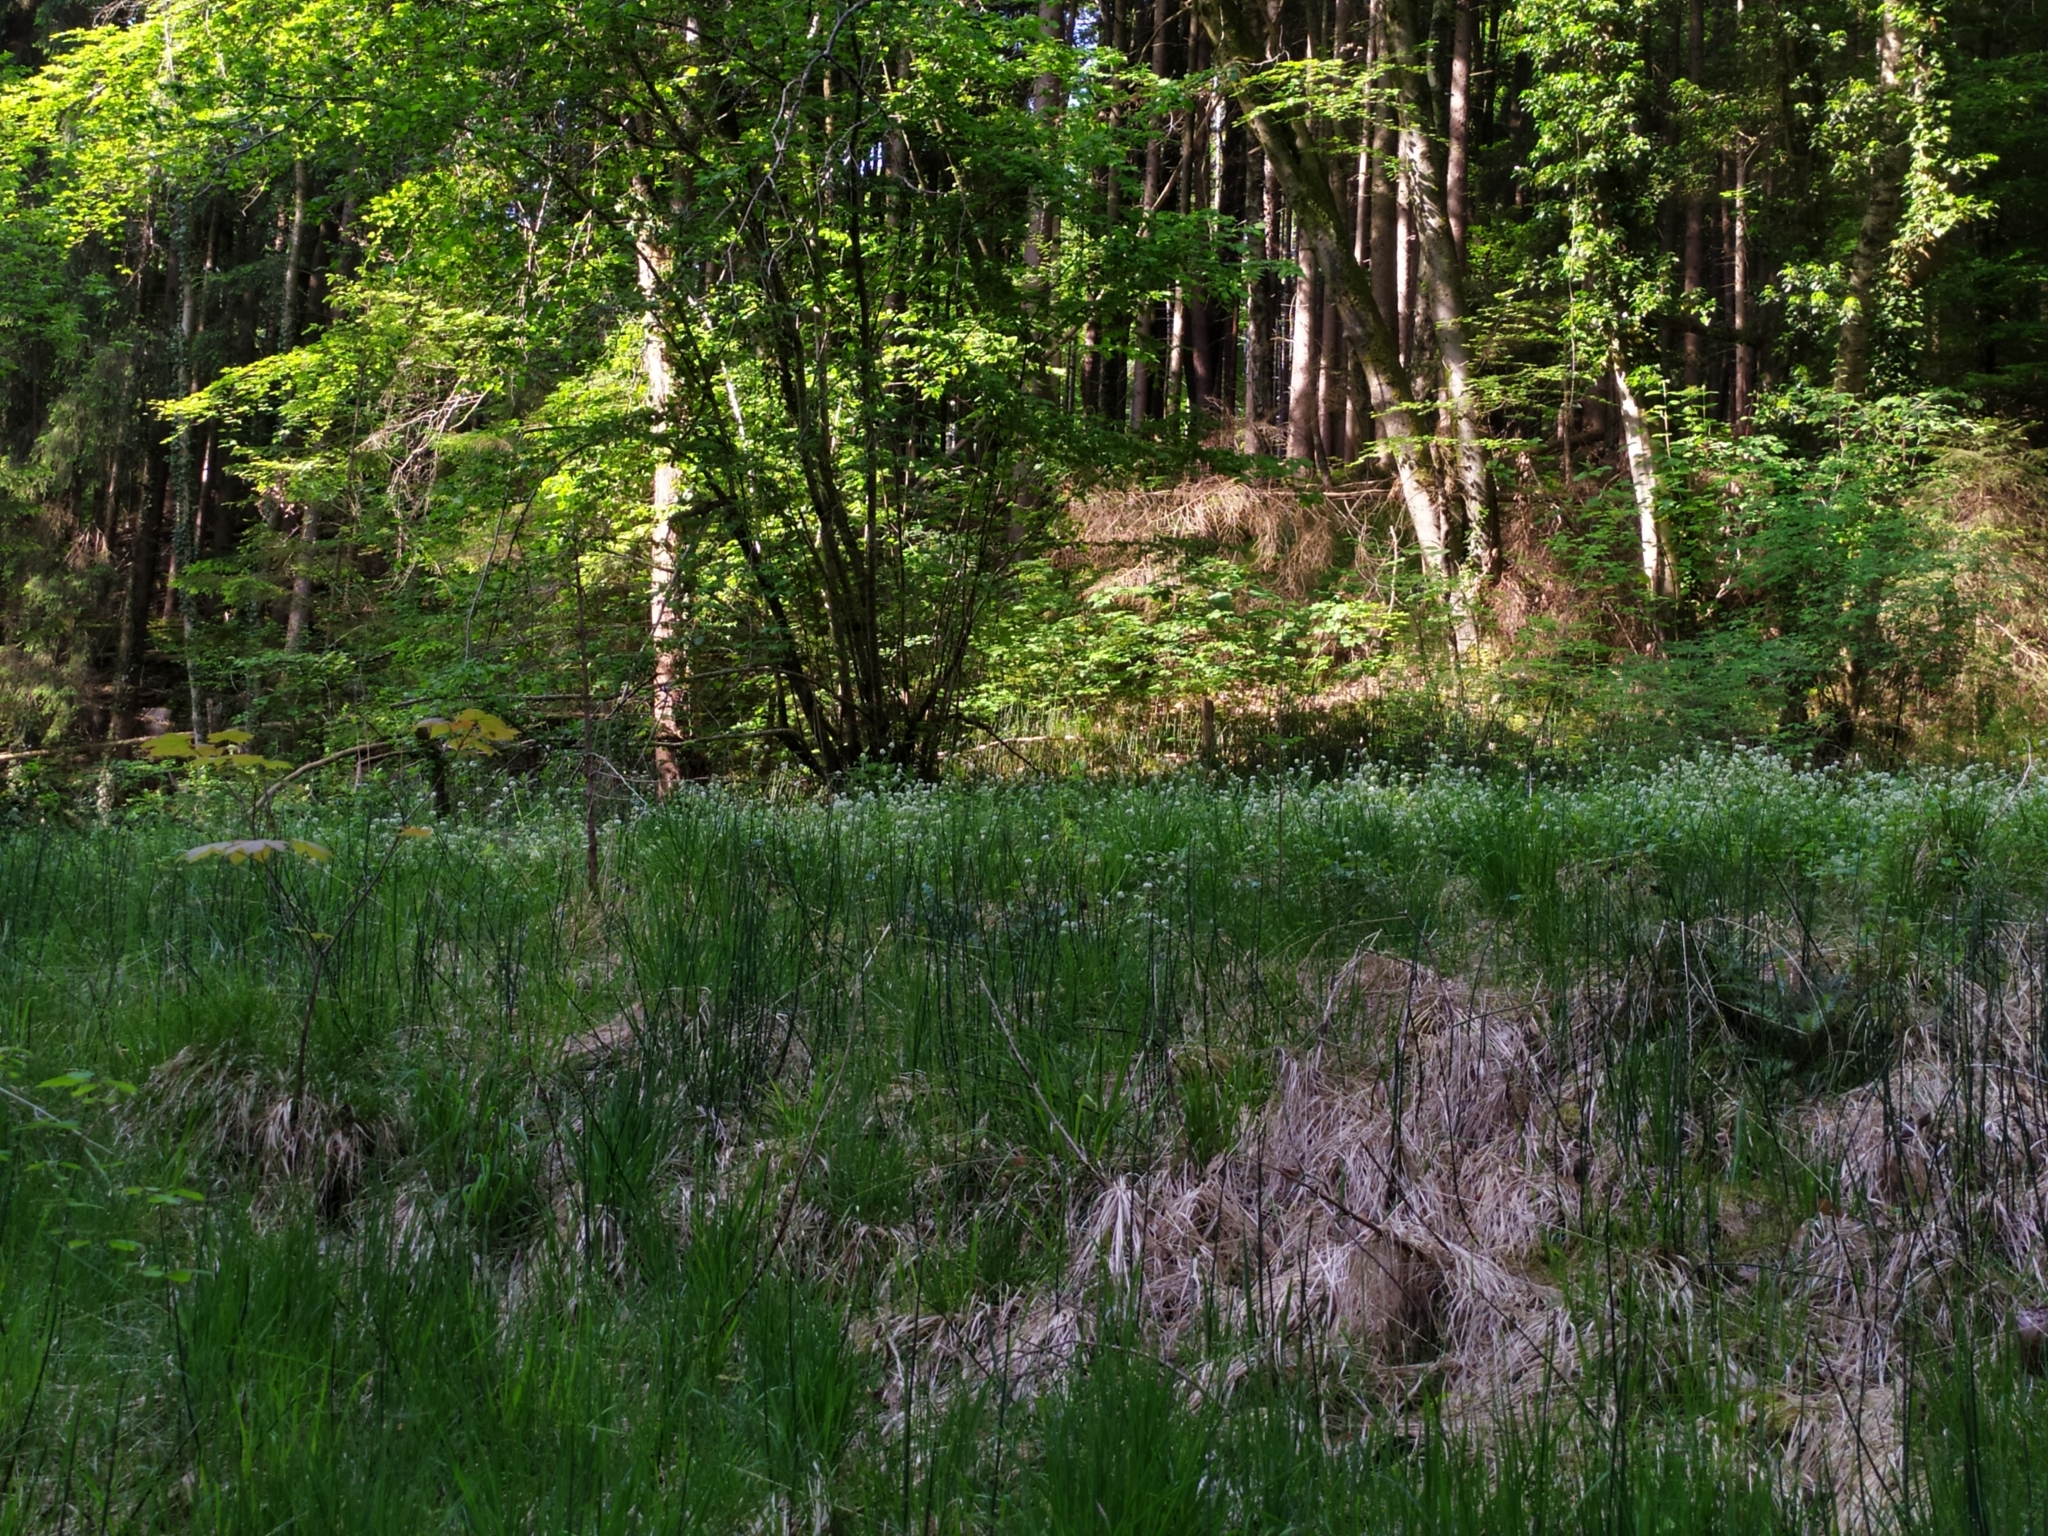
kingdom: Plantae
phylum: Tracheophyta
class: Magnoliopsida
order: Brassicales
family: Brassicaceae
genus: Cochlearia
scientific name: Cochlearia bavarica
